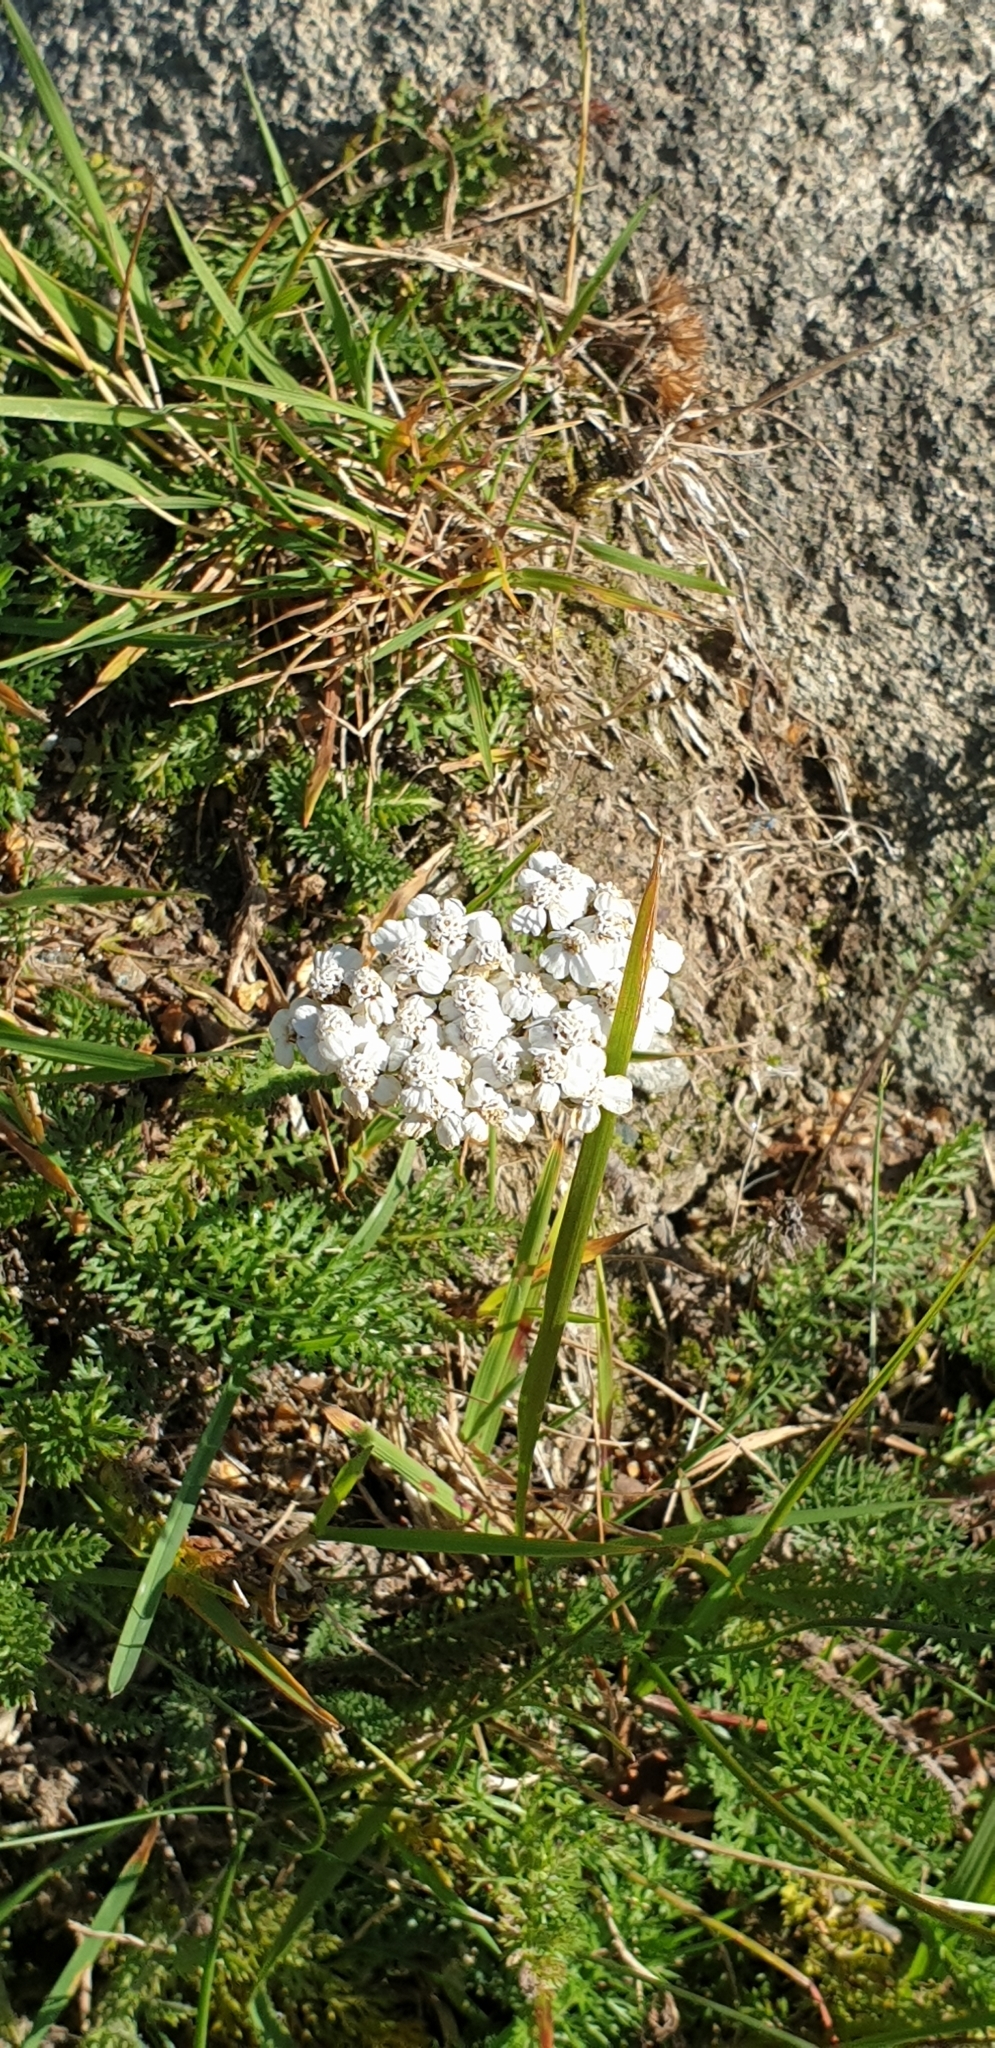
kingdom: Plantae
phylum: Tracheophyta
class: Magnoliopsida
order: Asterales
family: Asteraceae
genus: Achillea
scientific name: Achillea millefolium
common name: Yarrow
